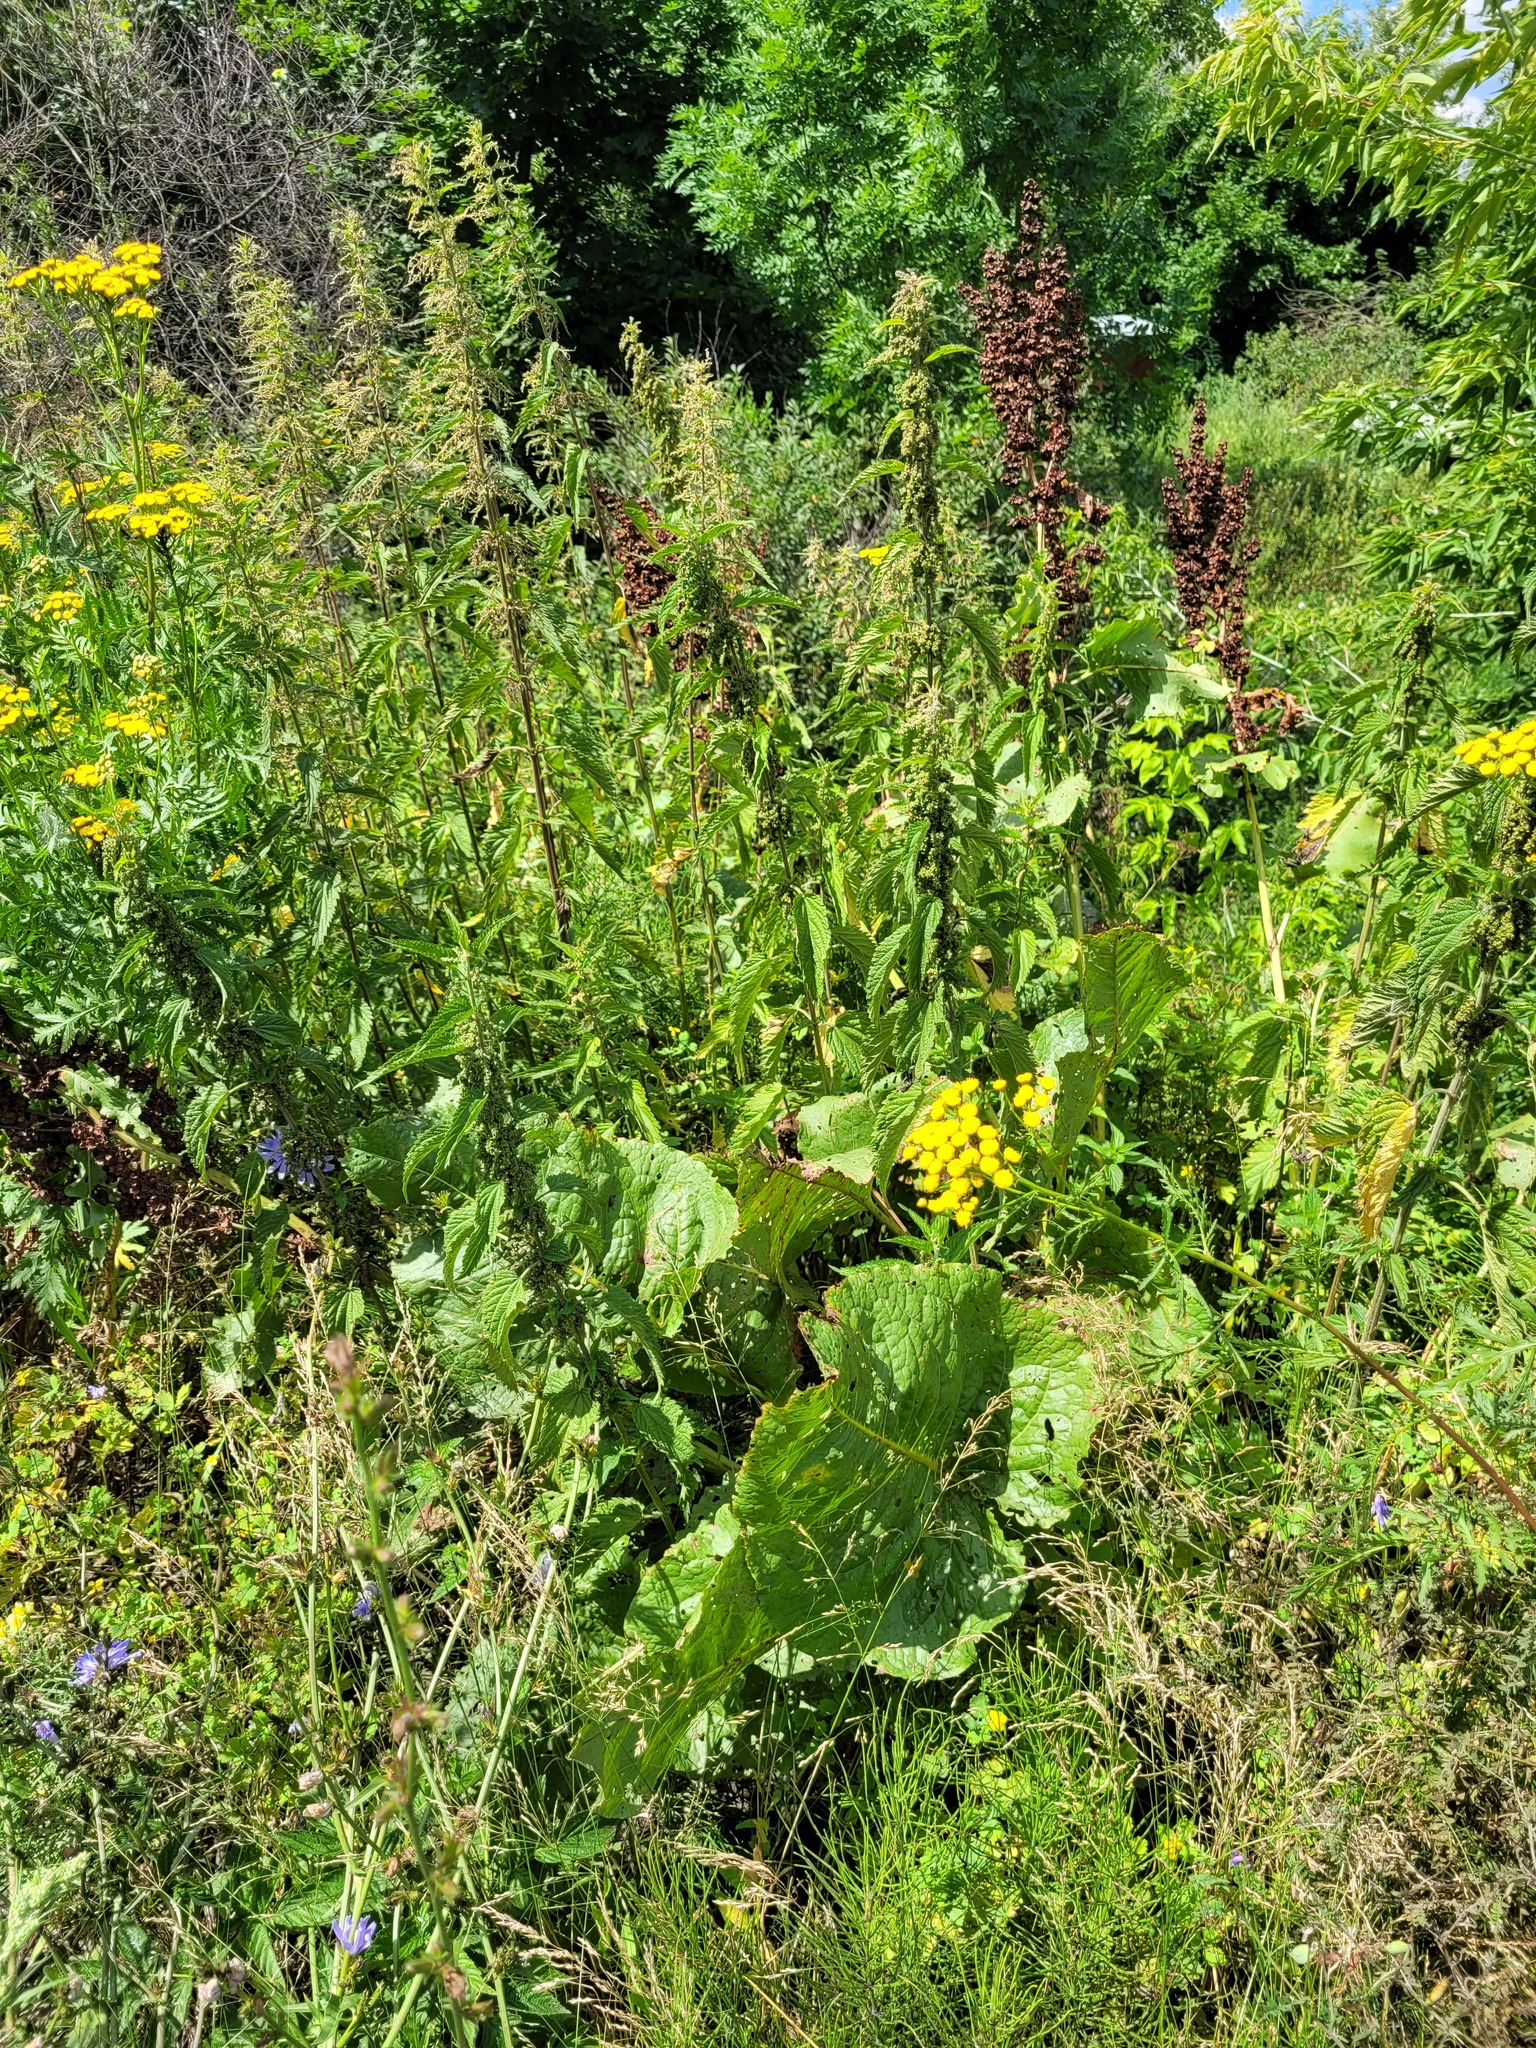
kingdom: Plantae
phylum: Tracheophyta
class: Magnoliopsida
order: Caryophyllales
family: Polygonaceae
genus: Rumex
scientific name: Rumex confertus
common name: Russian dock
